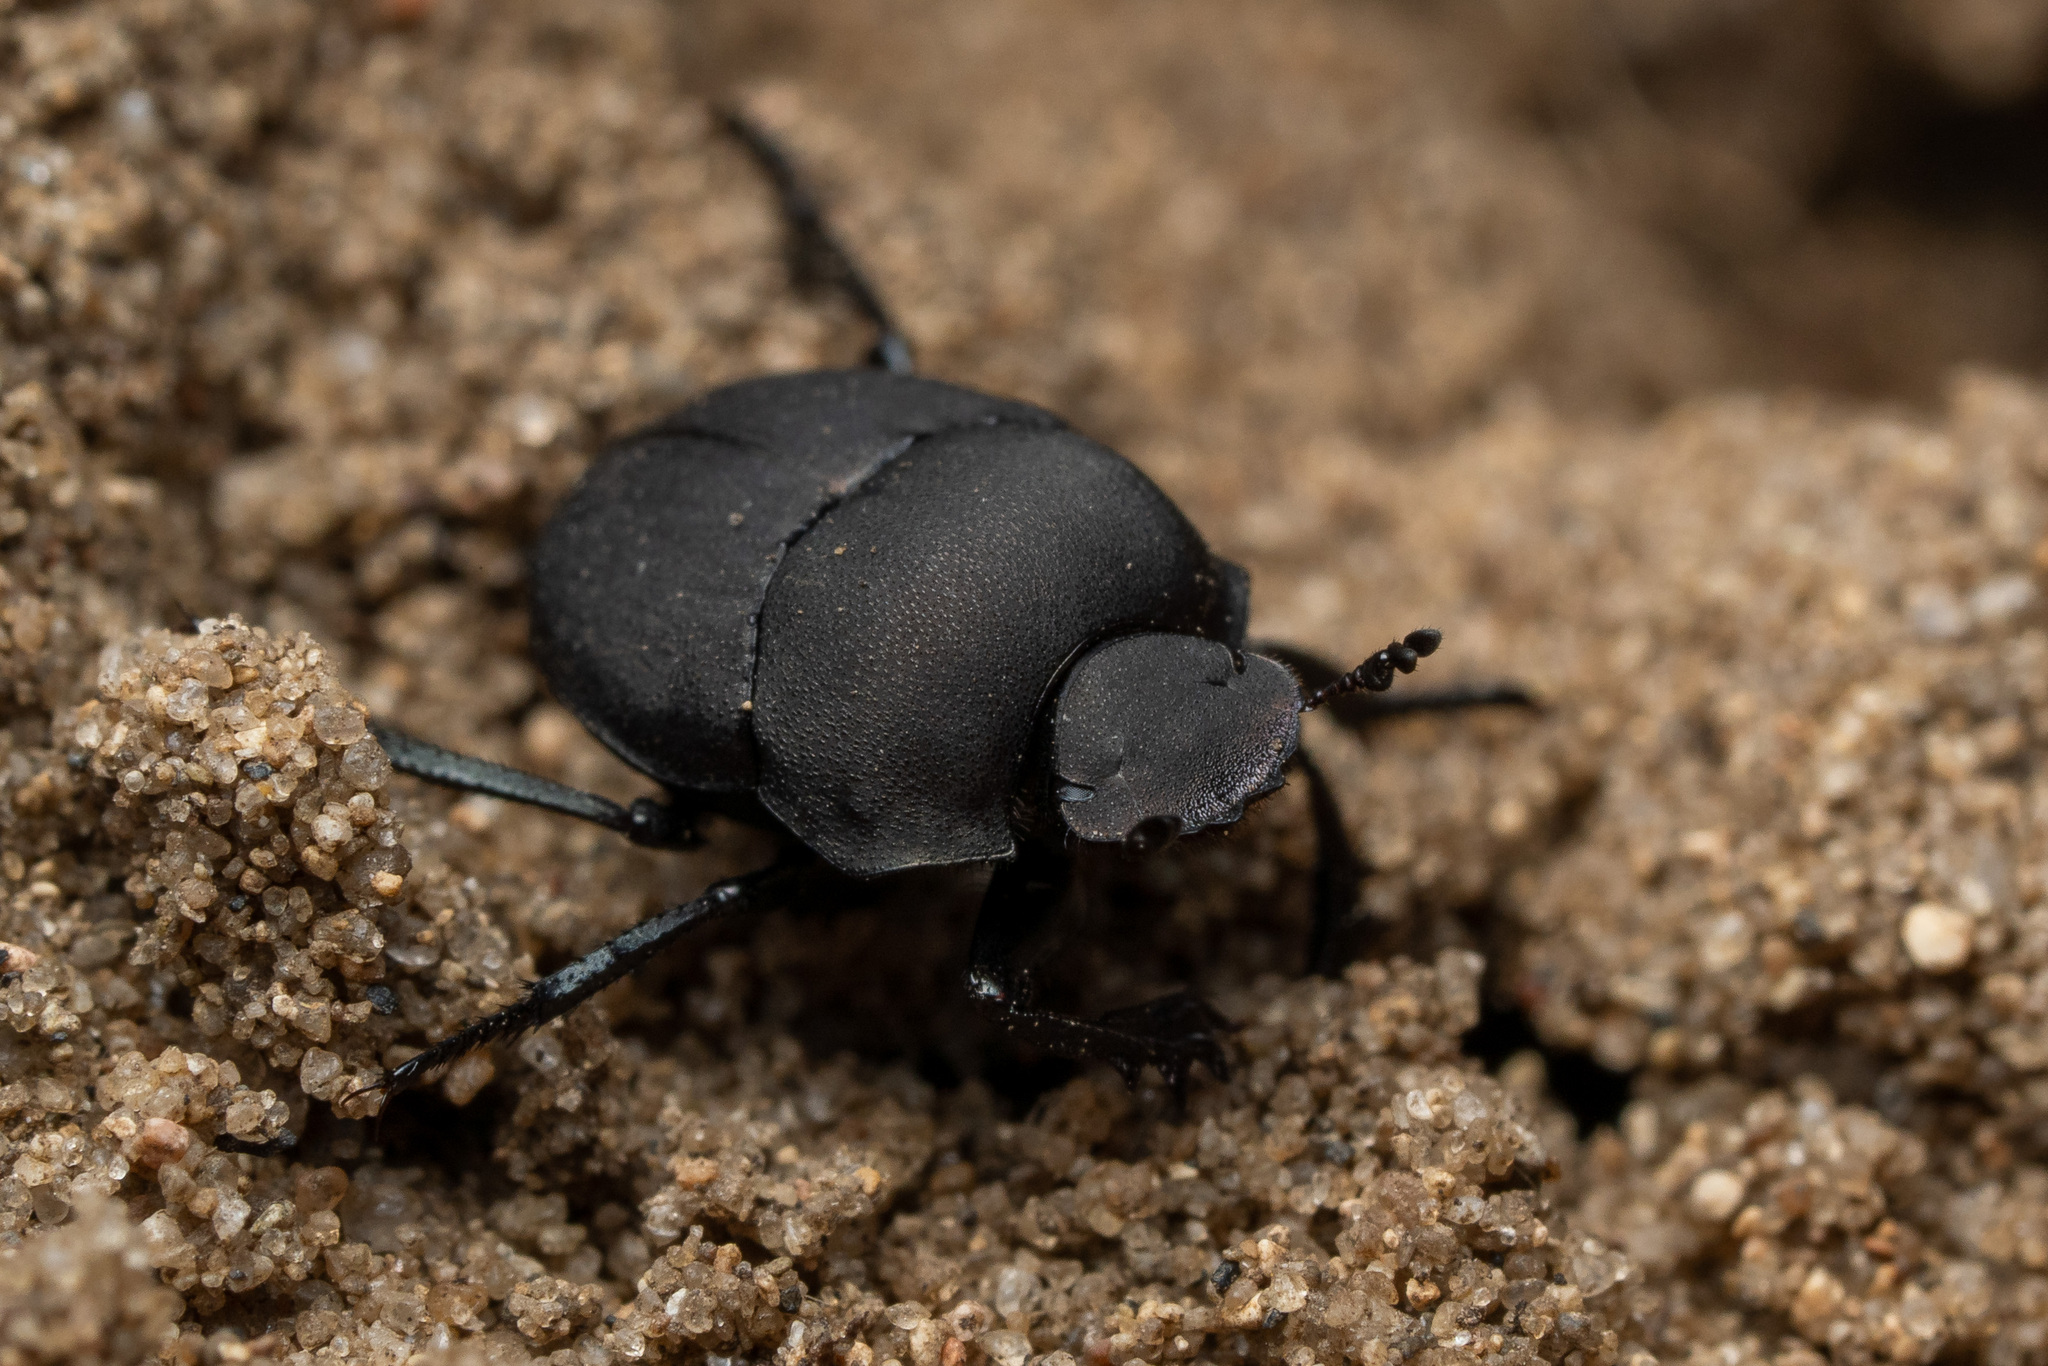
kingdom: Animalia
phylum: Arthropoda
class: Insecta
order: Coleoptera
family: Scarabaeidae
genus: Melanocanthon
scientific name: Melanocanthon nigricornis
